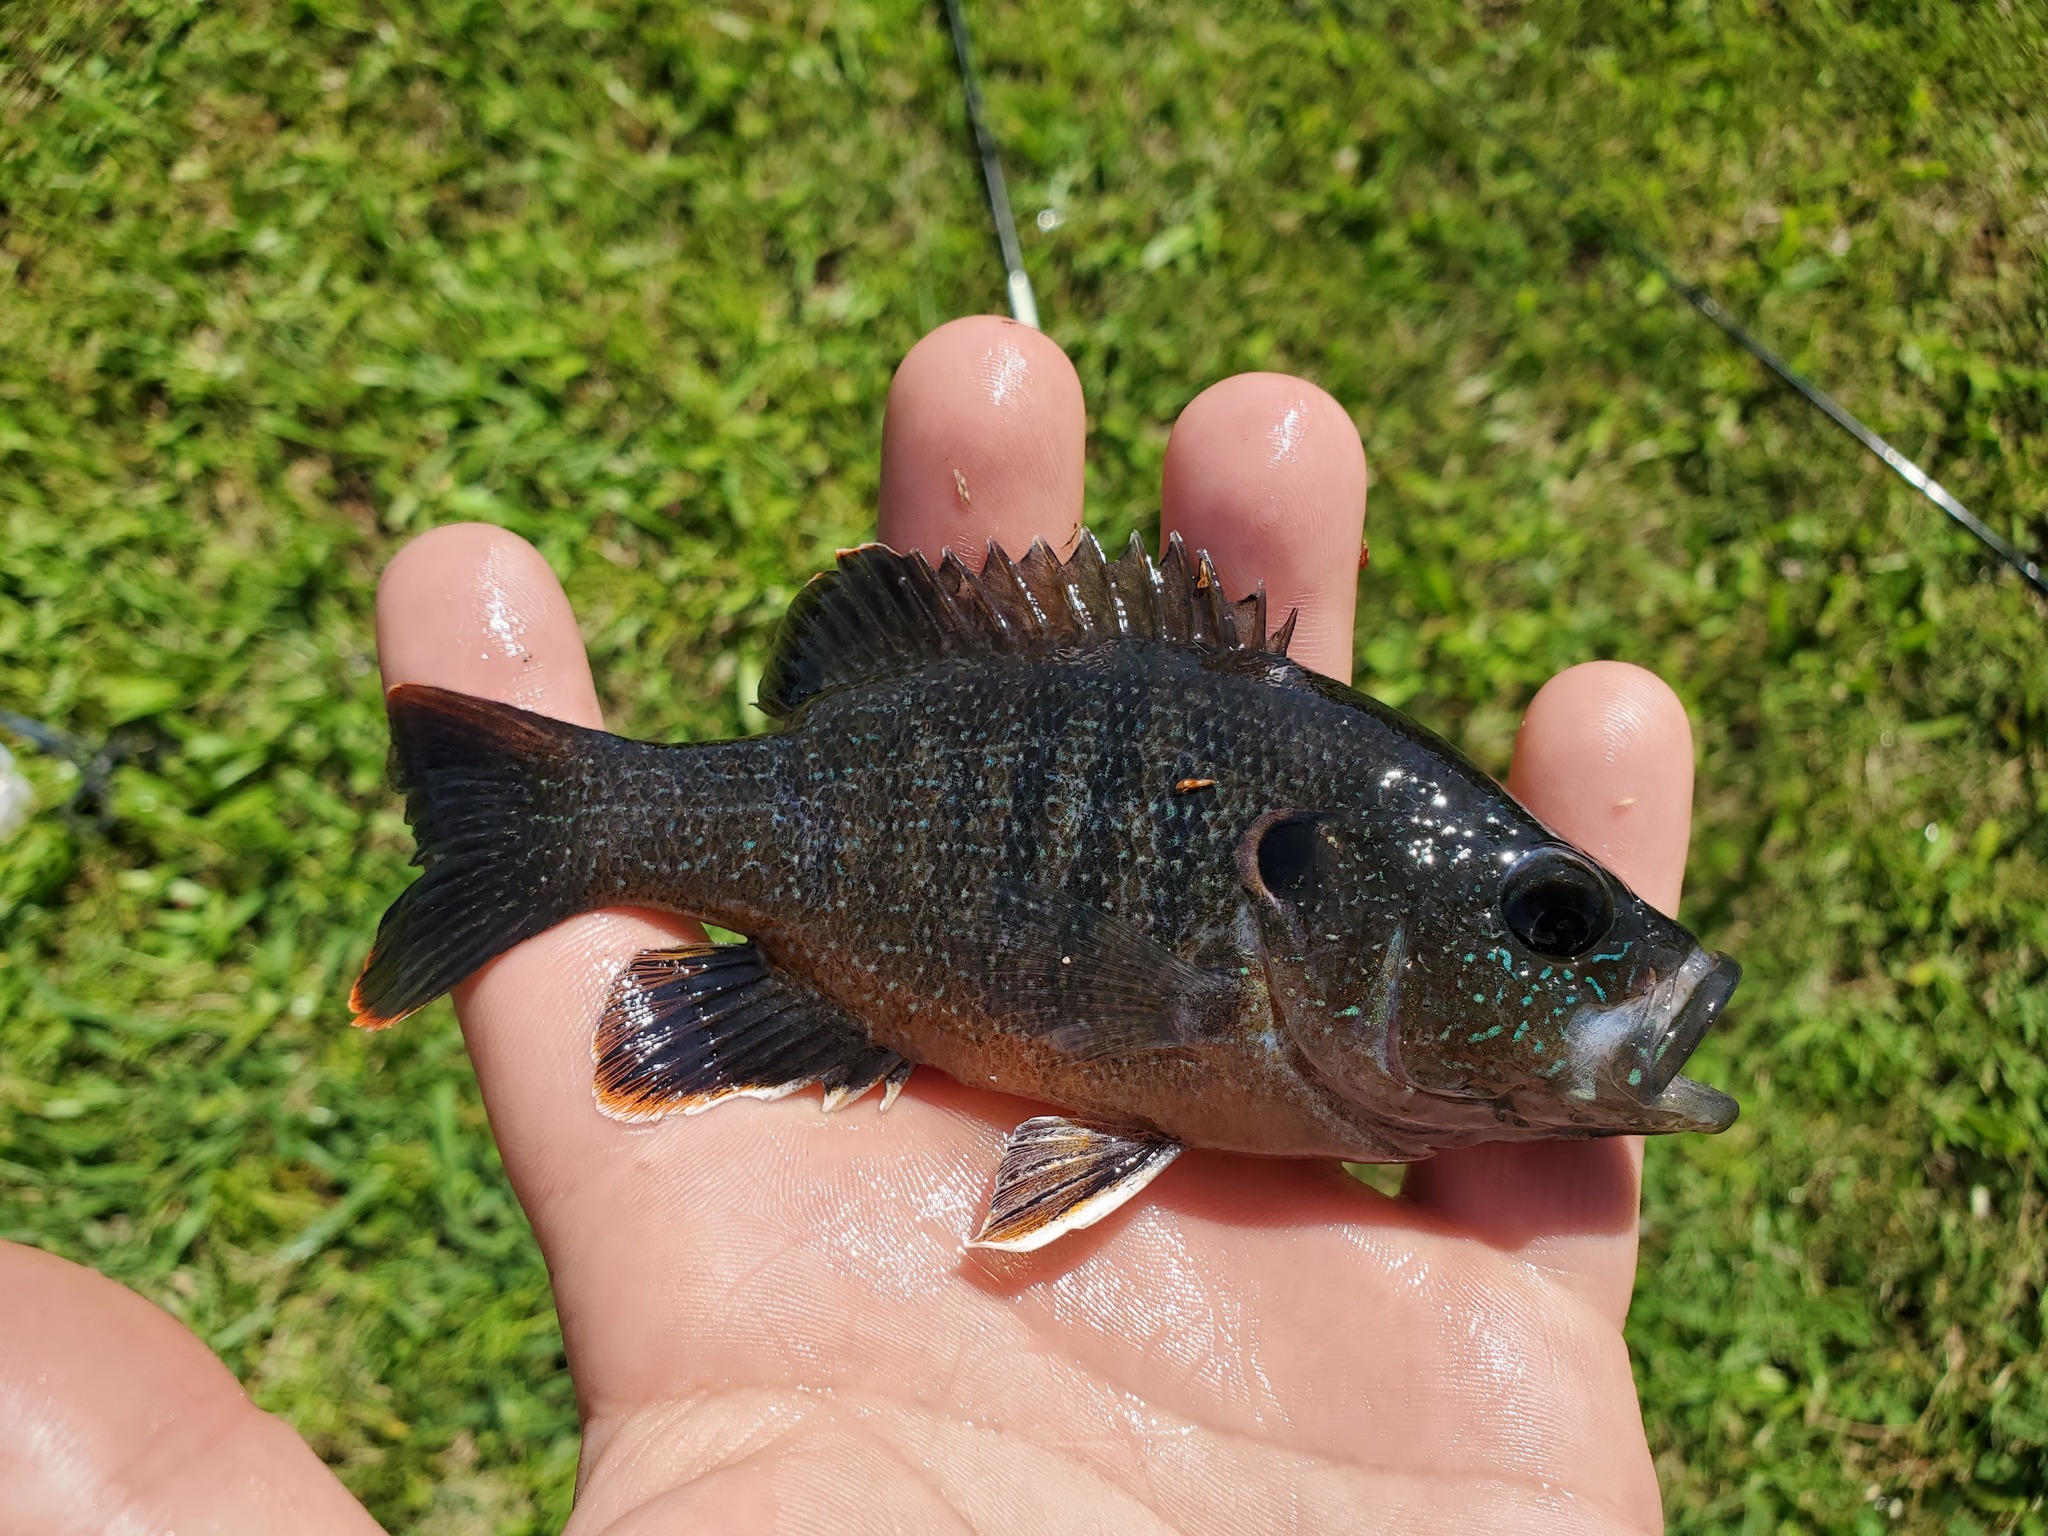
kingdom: Animalia
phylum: Chordata
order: Perciformes
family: Centrarchidae
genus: Lepomis
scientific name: Lepomis cyanellus
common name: Green sunfish
